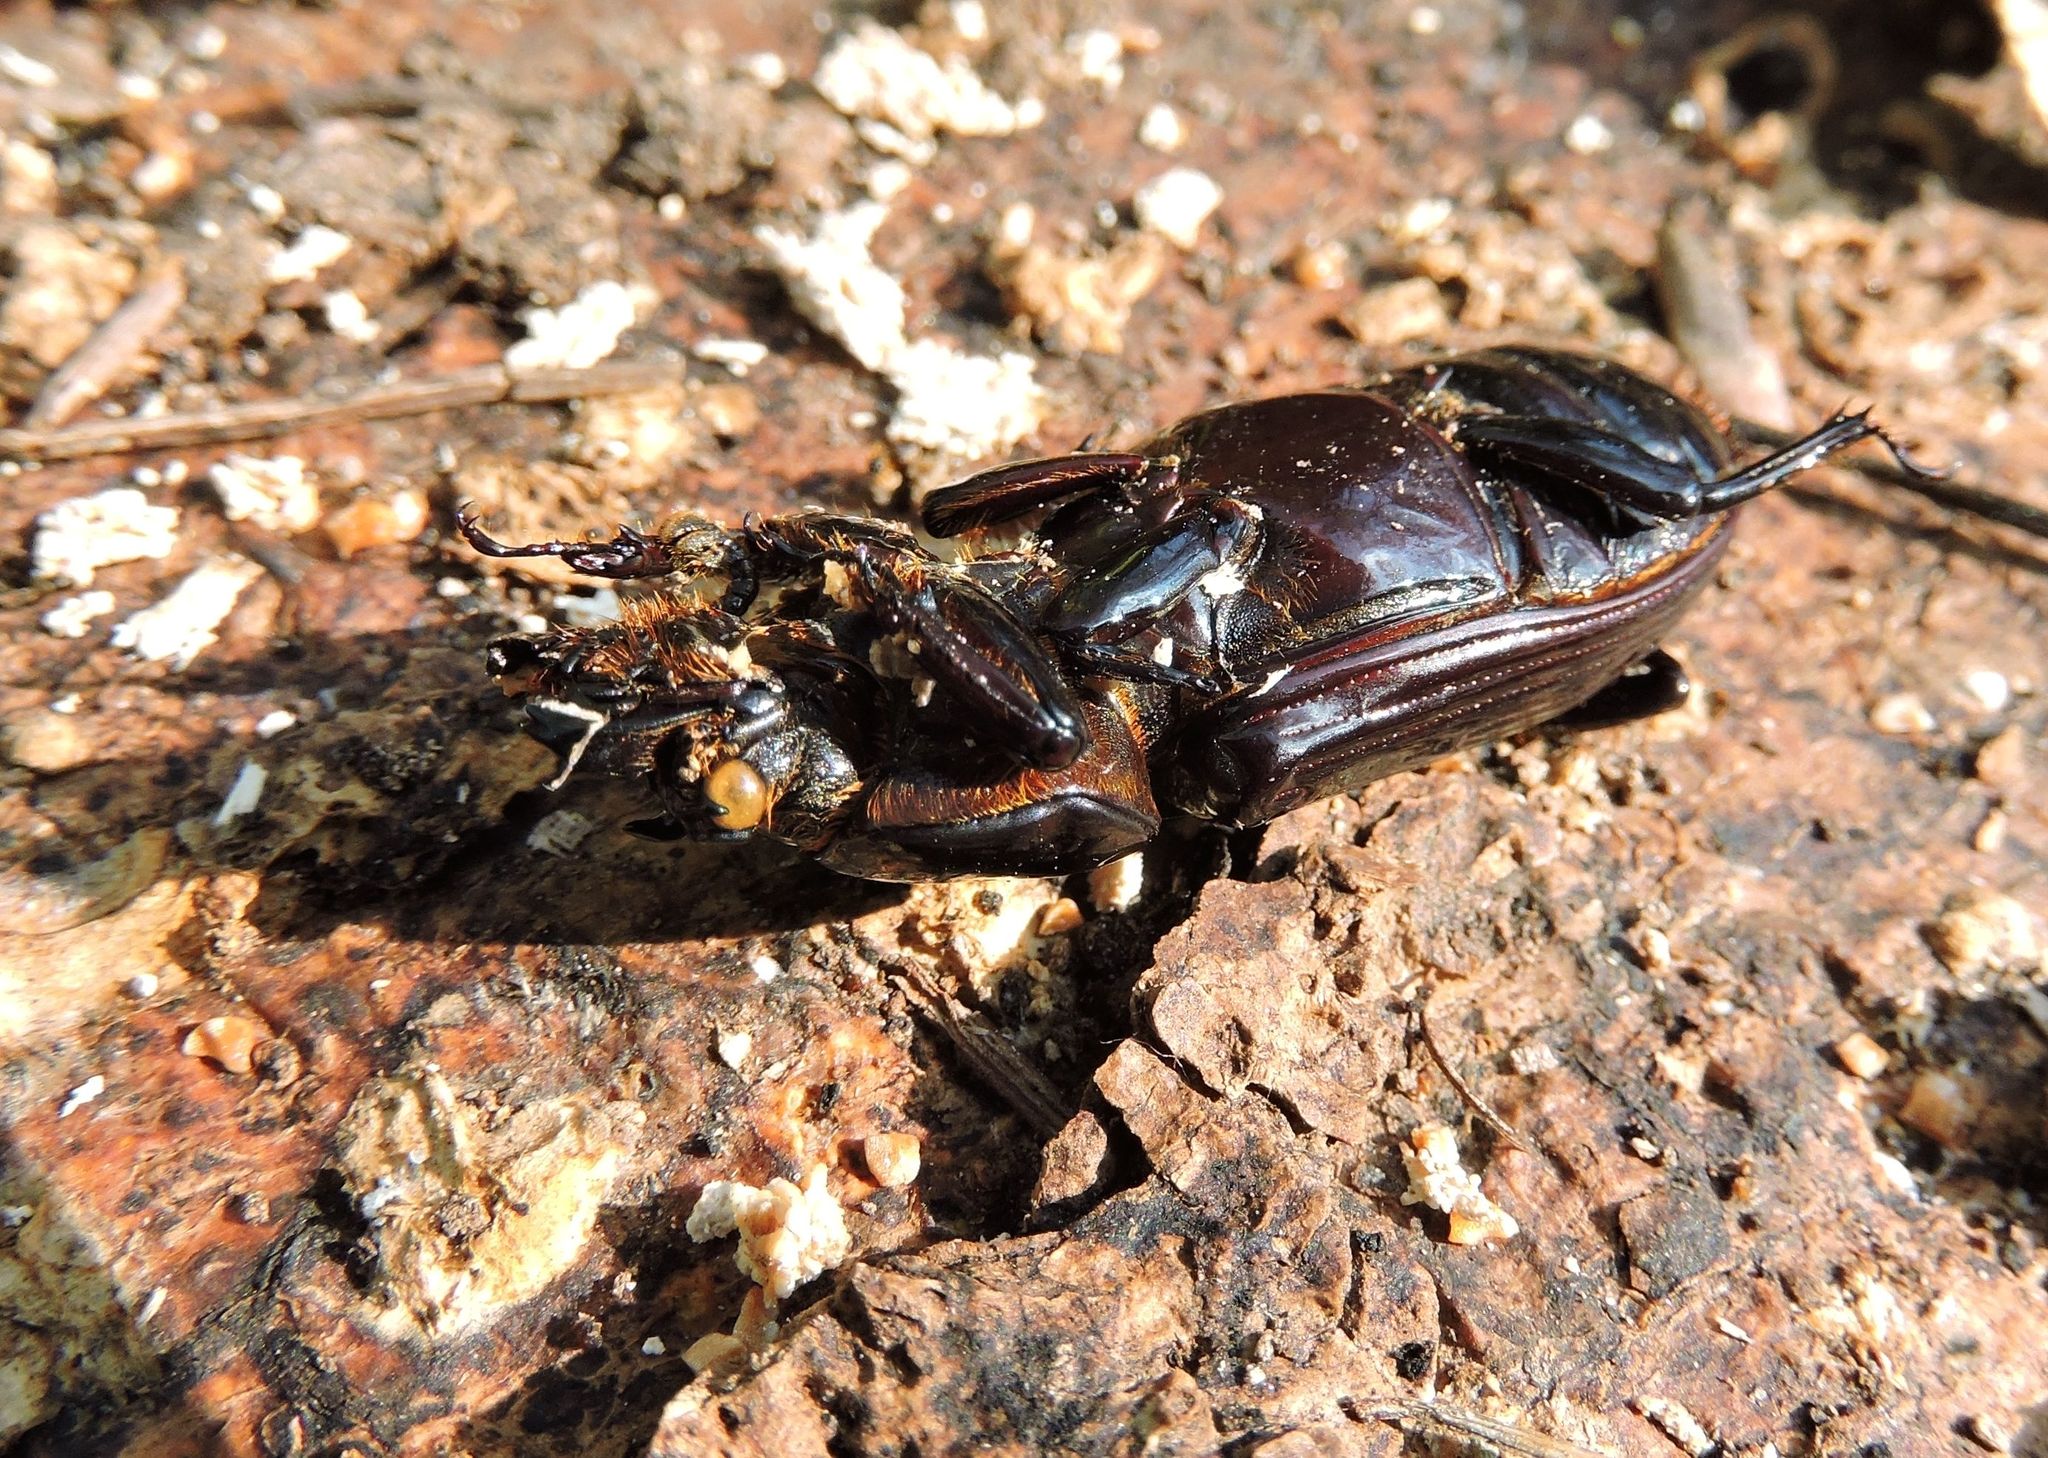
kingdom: Animalia
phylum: Arthropoda
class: Insecta
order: Coleoptera
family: Passalidae
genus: Odontotaenius
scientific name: Odontotaenius disjunctus
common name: Patent leather beetle
